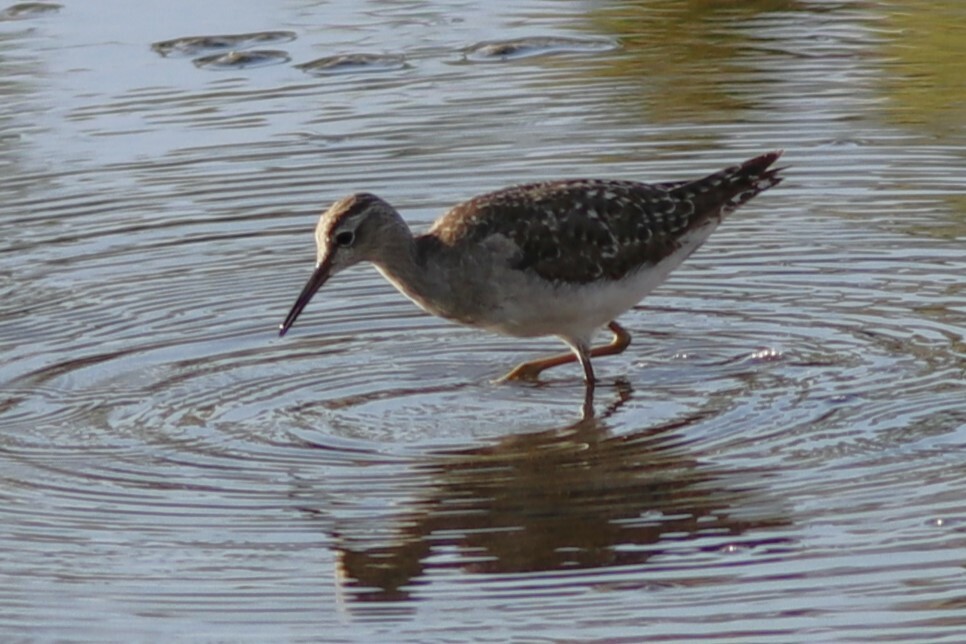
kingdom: Animalia
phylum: Chordata
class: Aves
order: Charadriiformes
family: Scolopacidae
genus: Tringa
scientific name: Tringa glareola
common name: Wood sandpiper
